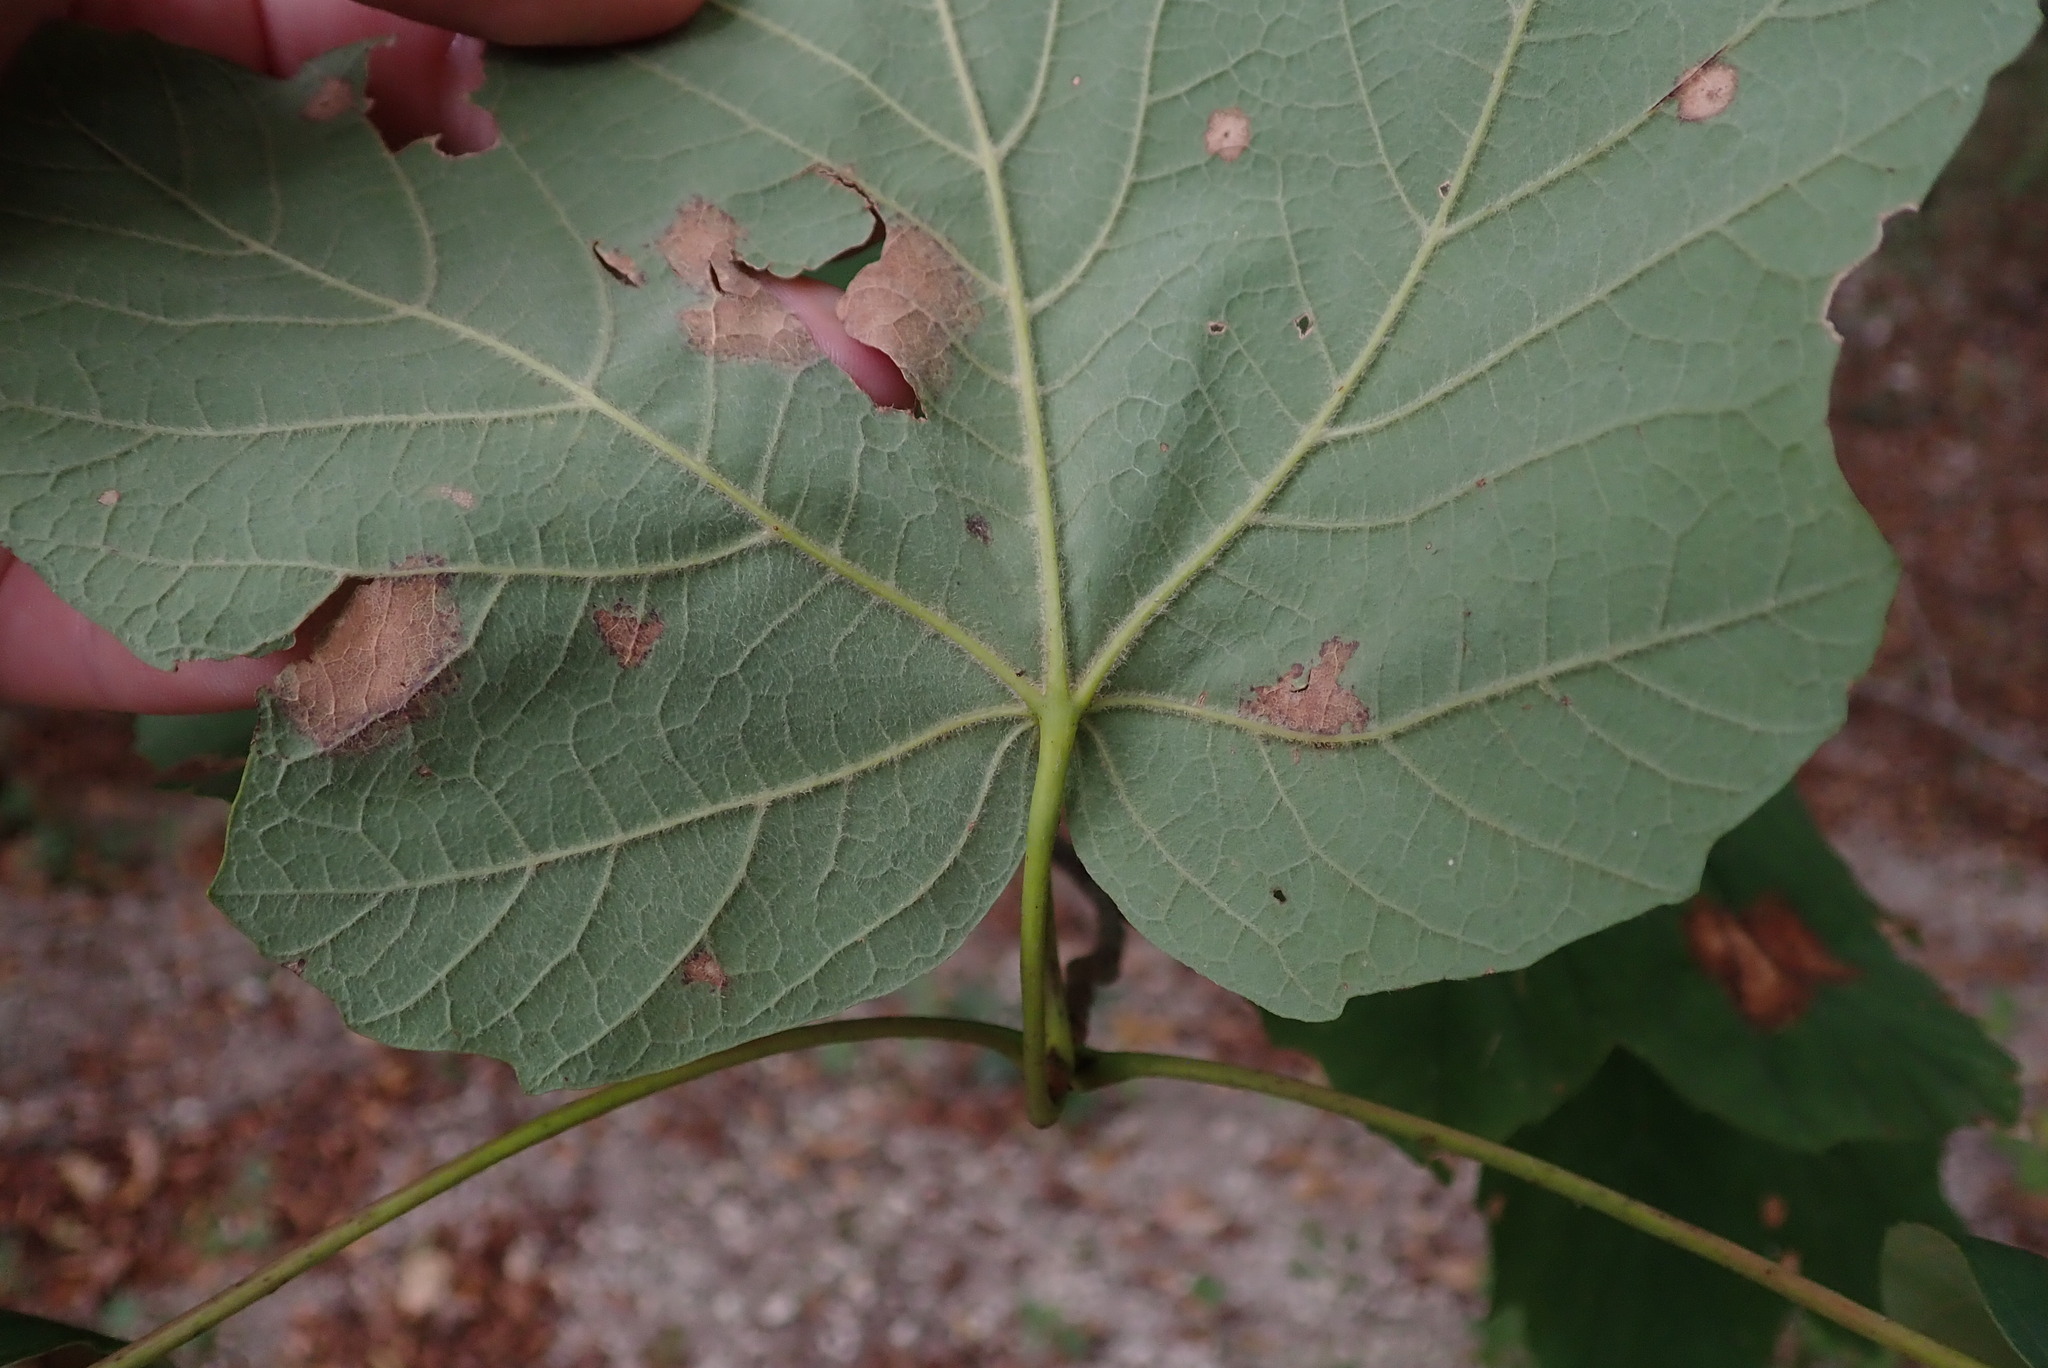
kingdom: Plantae
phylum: Tracheophyta
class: Magnoliopsida
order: Sapindales
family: Sapindaceae
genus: Acer
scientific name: Acer opalus
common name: Italian maple
